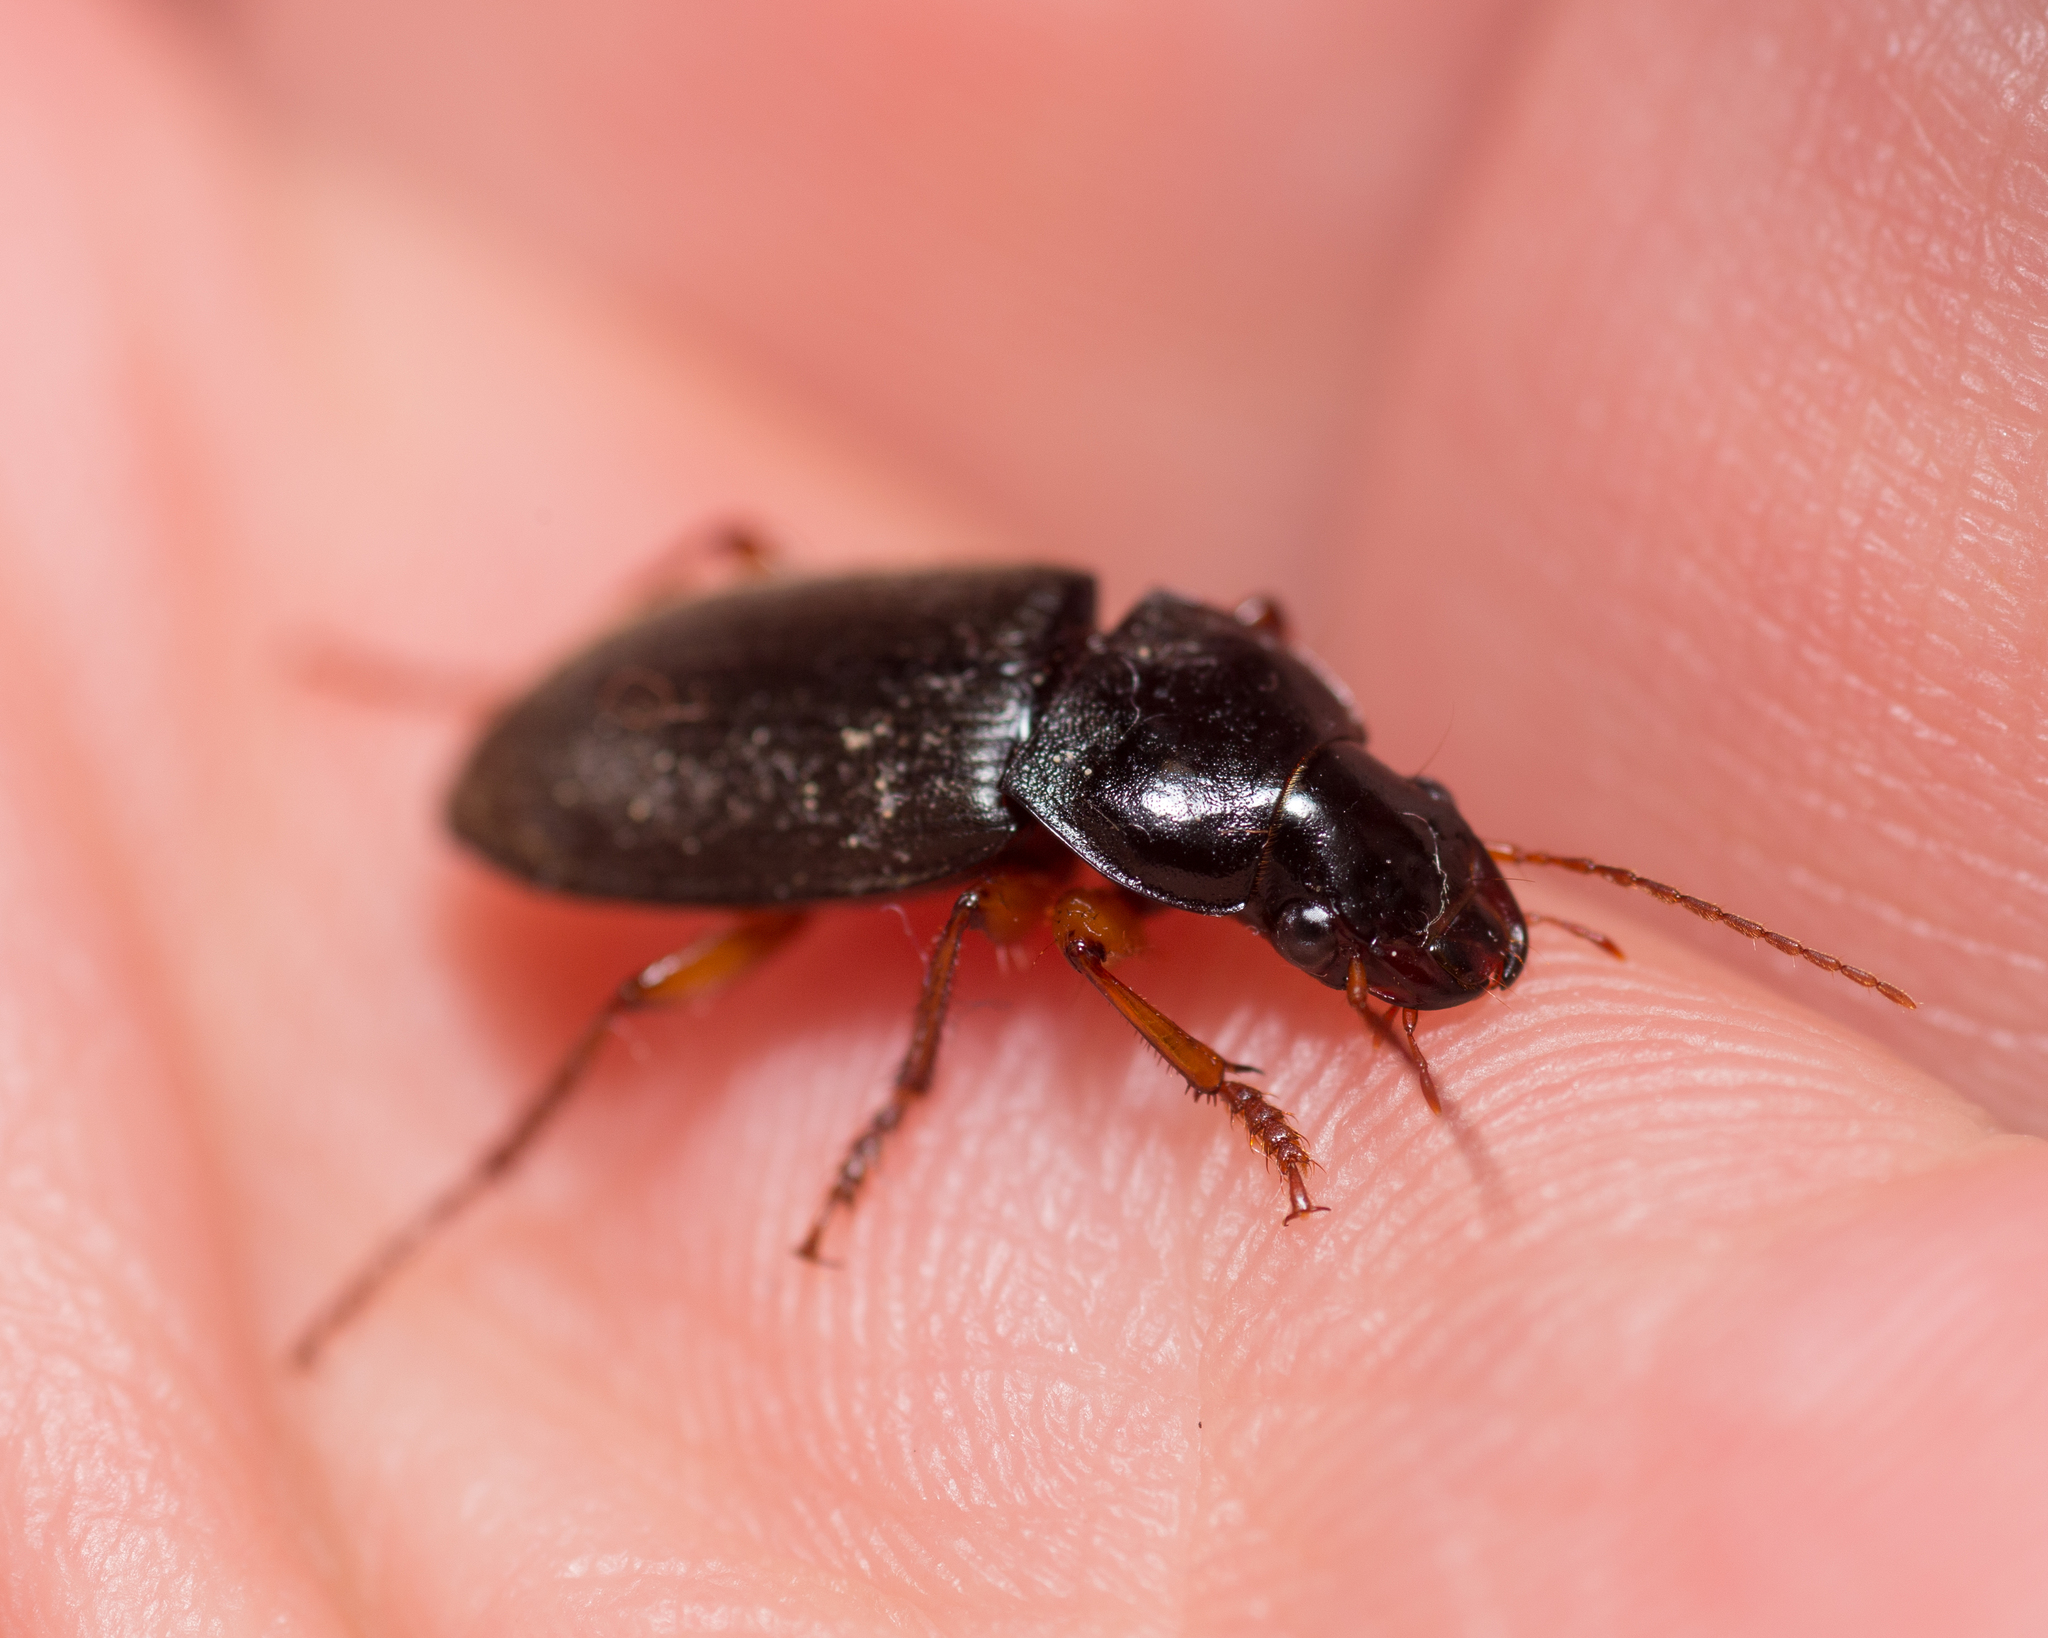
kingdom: Animalia
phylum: Arthropoda
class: Insecta
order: Coleoptera
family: Carabidae
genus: Harpalus
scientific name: Harpalus rufipes
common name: Strawberry harp ground beetle
